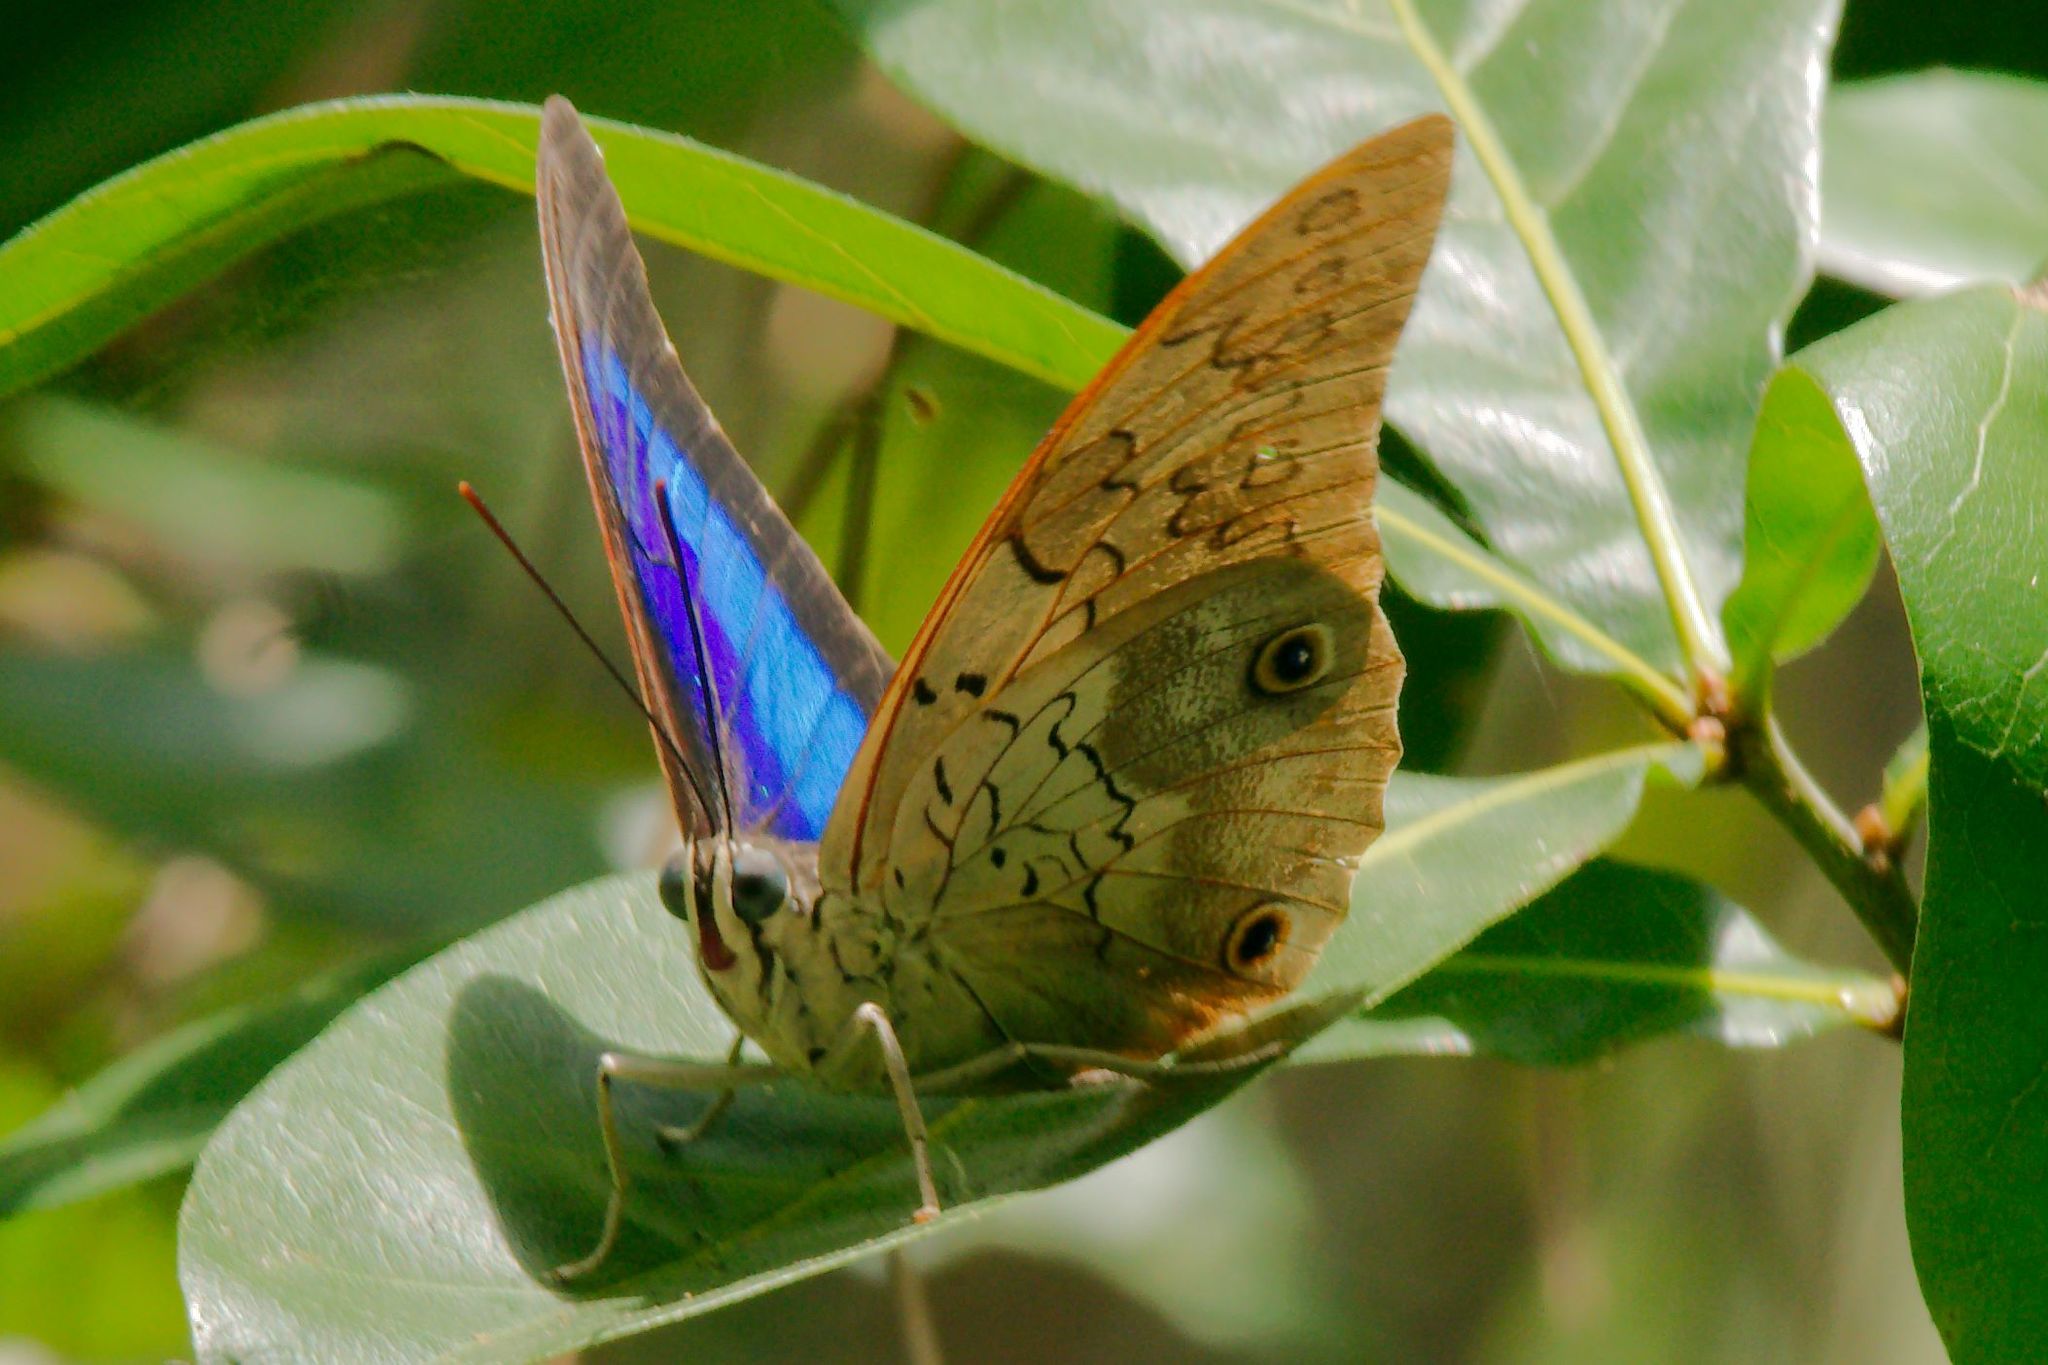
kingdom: Animalia
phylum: Arthropoda
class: Insecta
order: Lepidoptera
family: Nymphalidae
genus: Prepona
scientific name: Prepona laertes
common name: Butterfly
